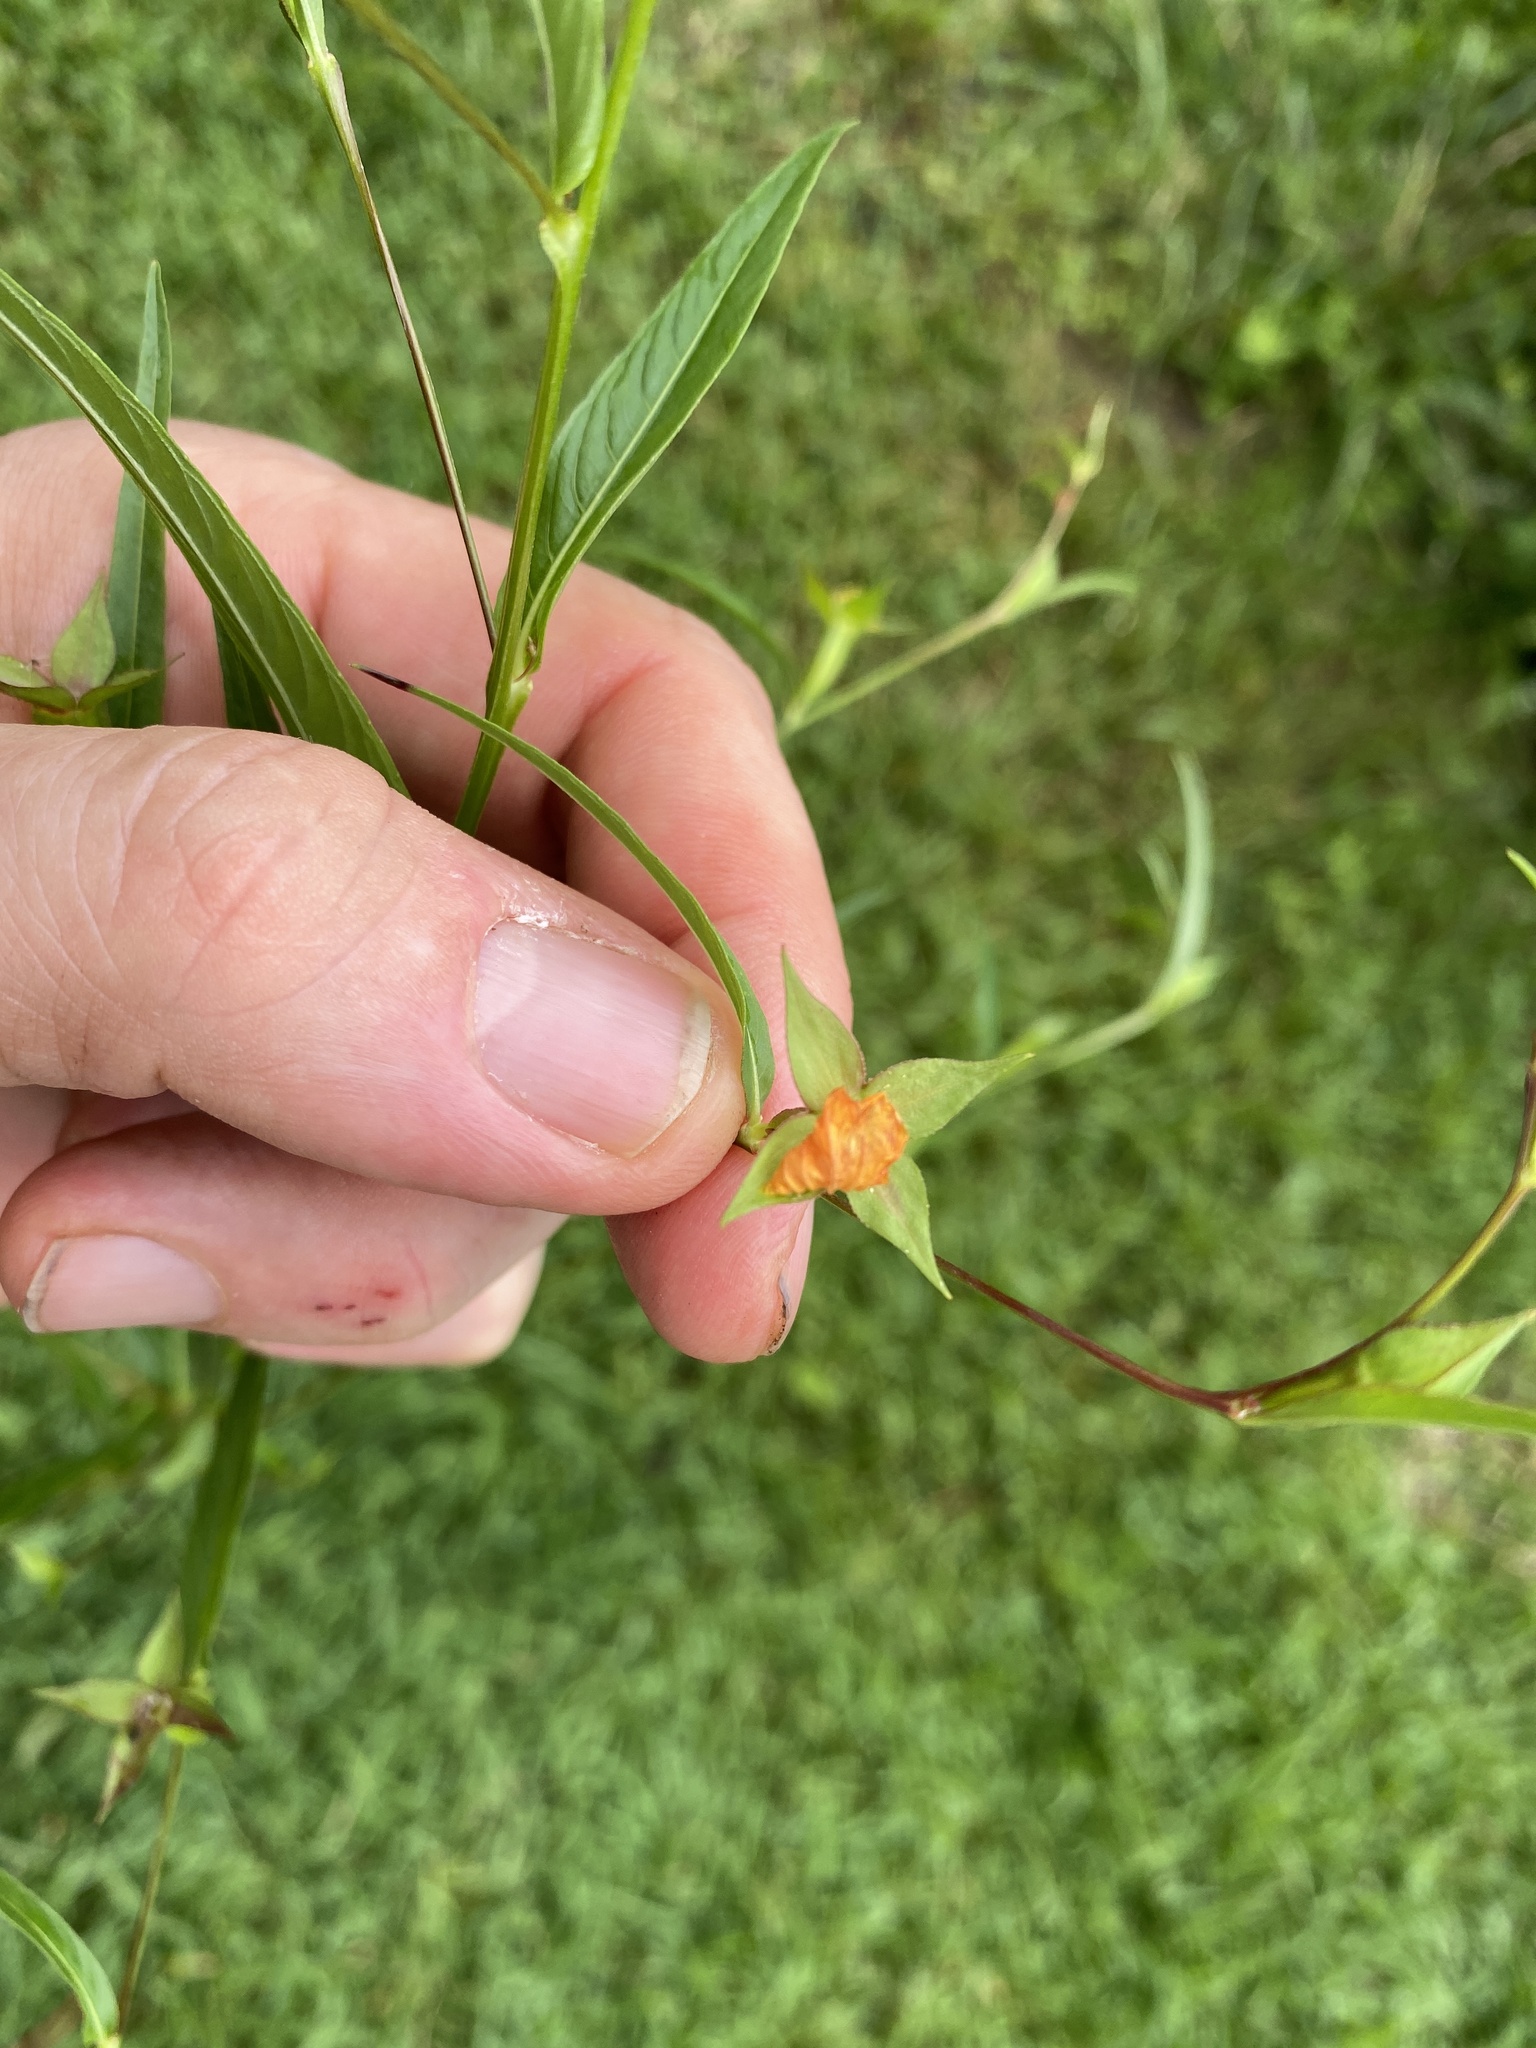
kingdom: Plantae
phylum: Tracheophyta
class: Magnoliopsida
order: Myrtales
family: Onagraceae
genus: Ludwigia
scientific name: Ludwigia decurrens
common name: Winged water-primrose
